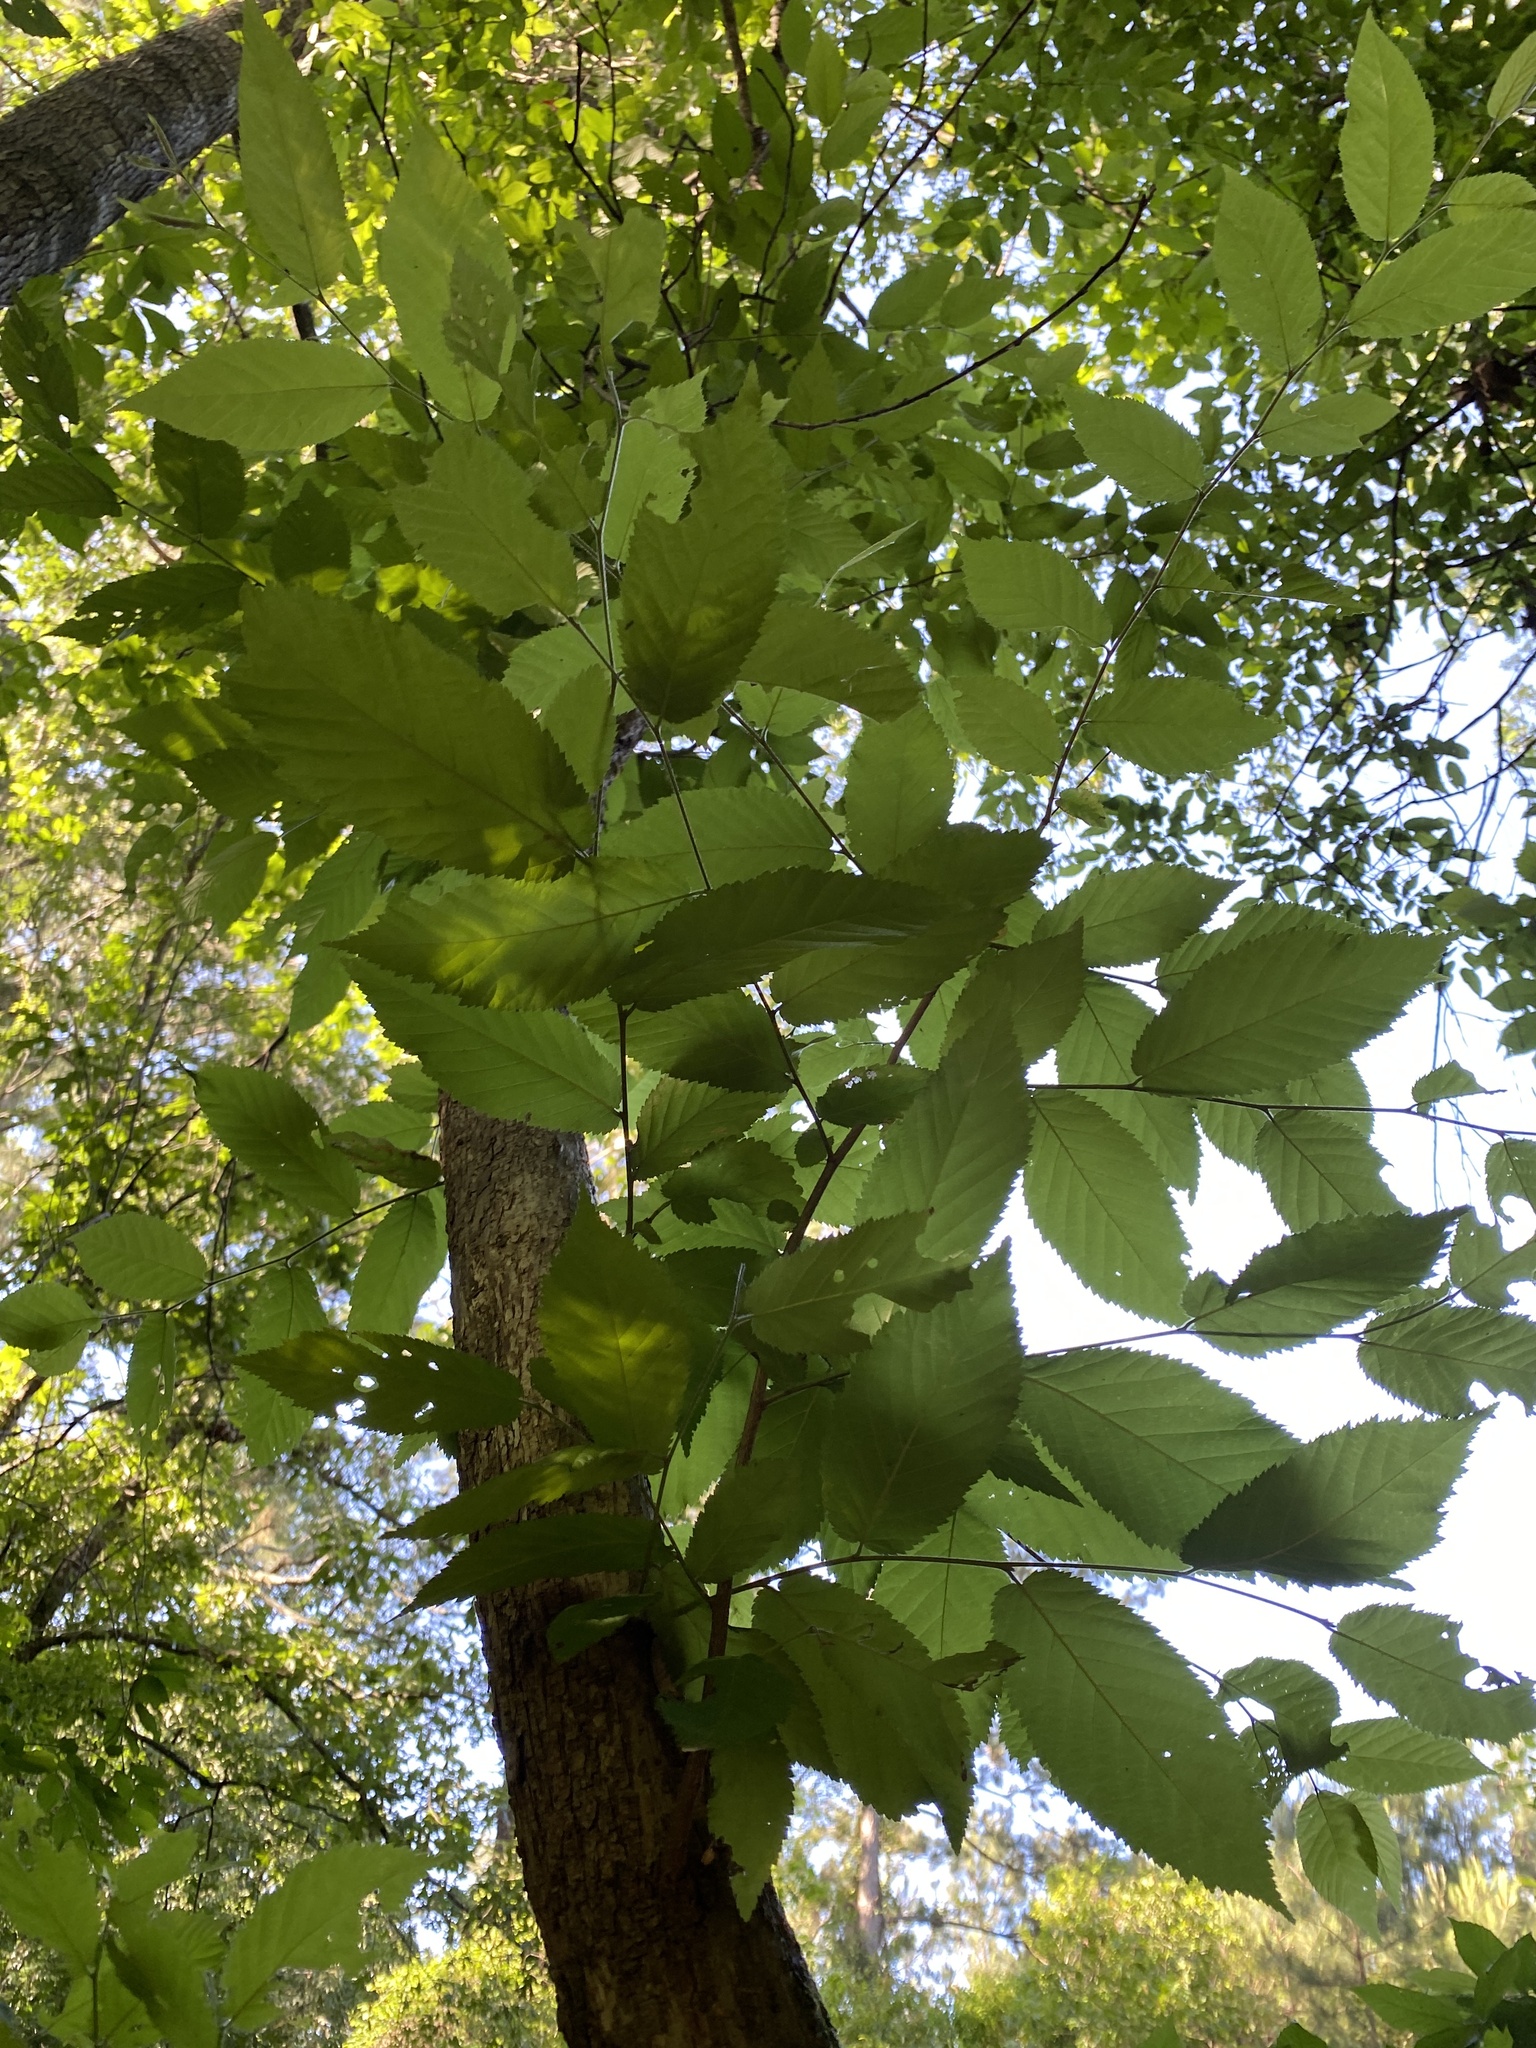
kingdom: Plantae
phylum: Tracheophyta
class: Magnoliopsida
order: Fagales
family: Betulaceae
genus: Ostrya
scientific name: Ostrya virginiana
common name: Ironwood
